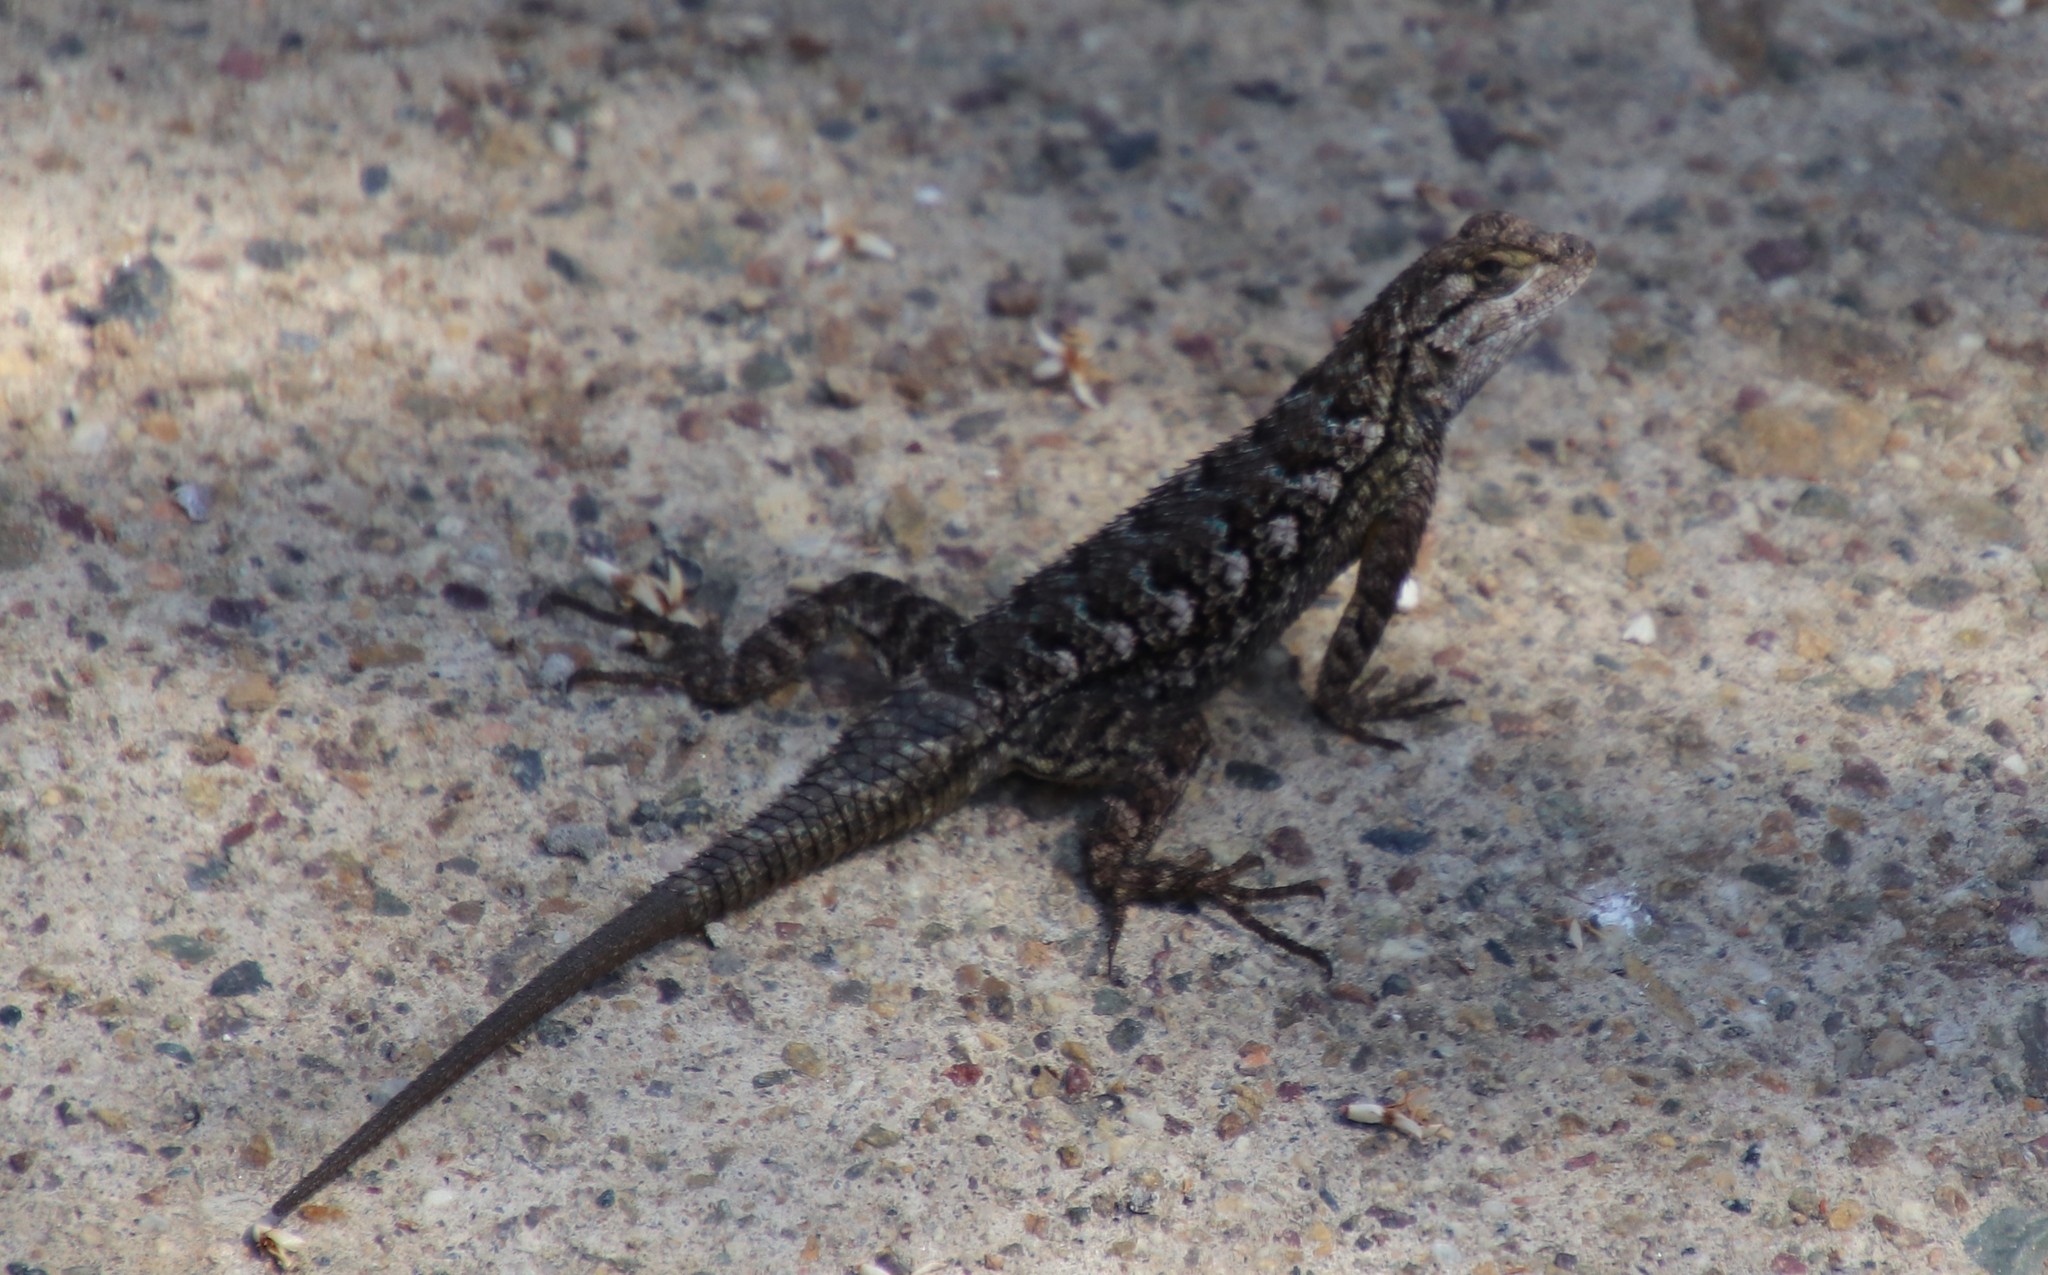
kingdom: Animalia
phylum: Chordata
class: Squamata
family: Phrynosomatidae
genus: Sceloporus
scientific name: Sceloporus occidentalis
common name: Western fence lizard
